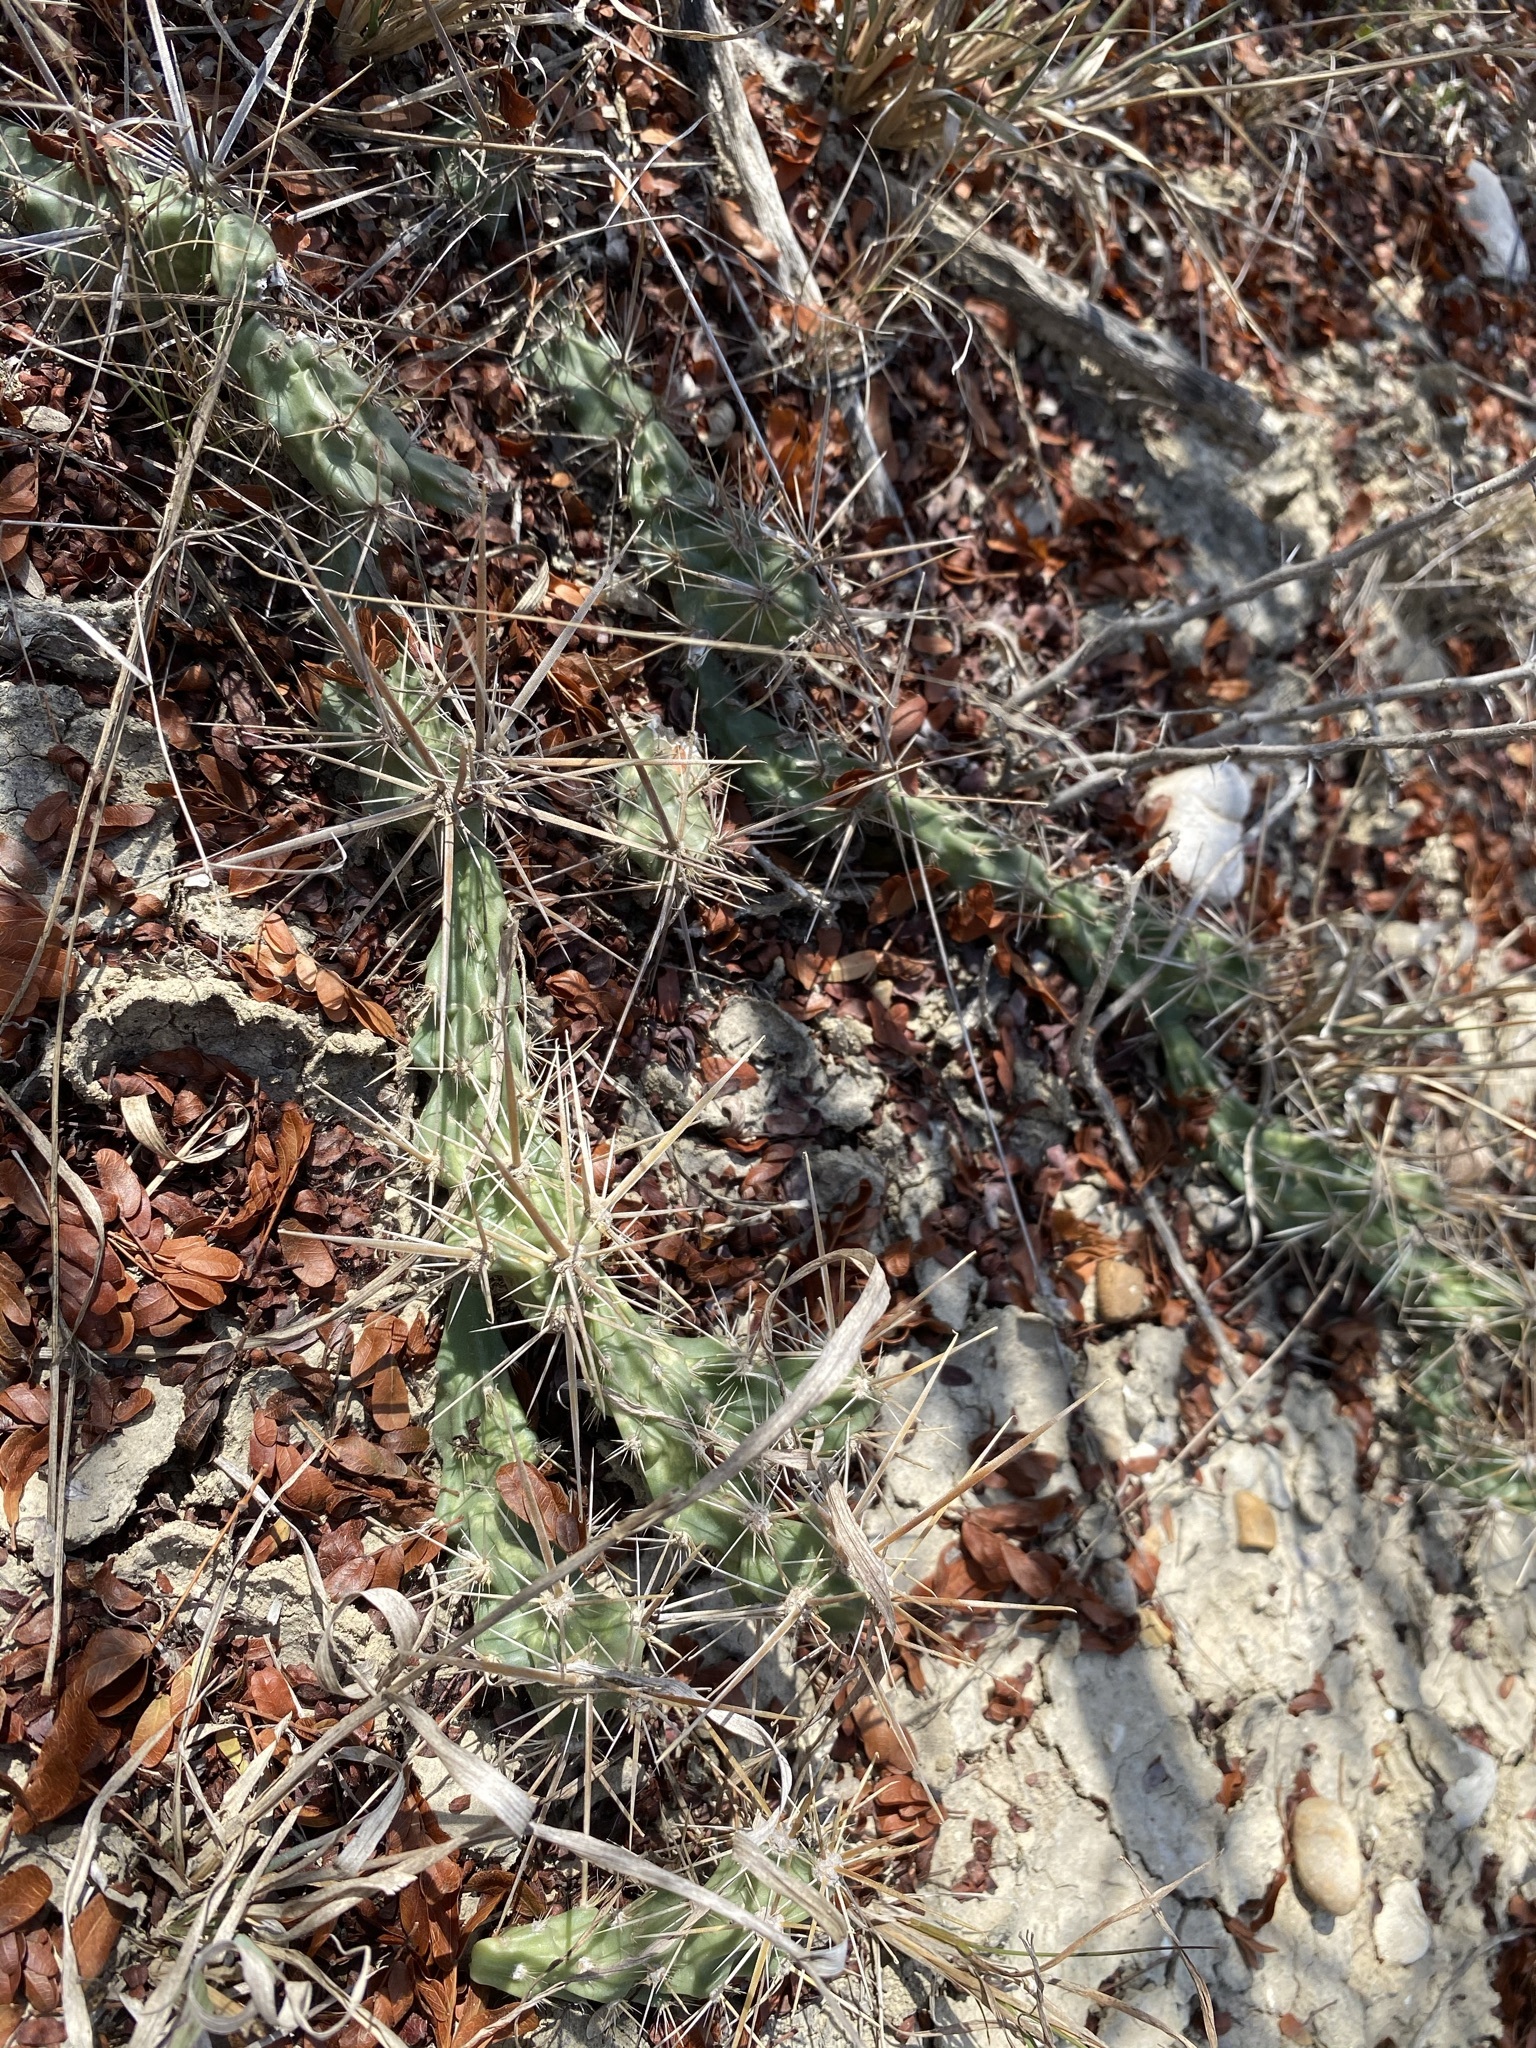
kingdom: Plantae
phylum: Tracheophyta
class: Magnoliopsida
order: Caryophyllales
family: Cactaceae
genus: Grusonia
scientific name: Grusonia schottii
